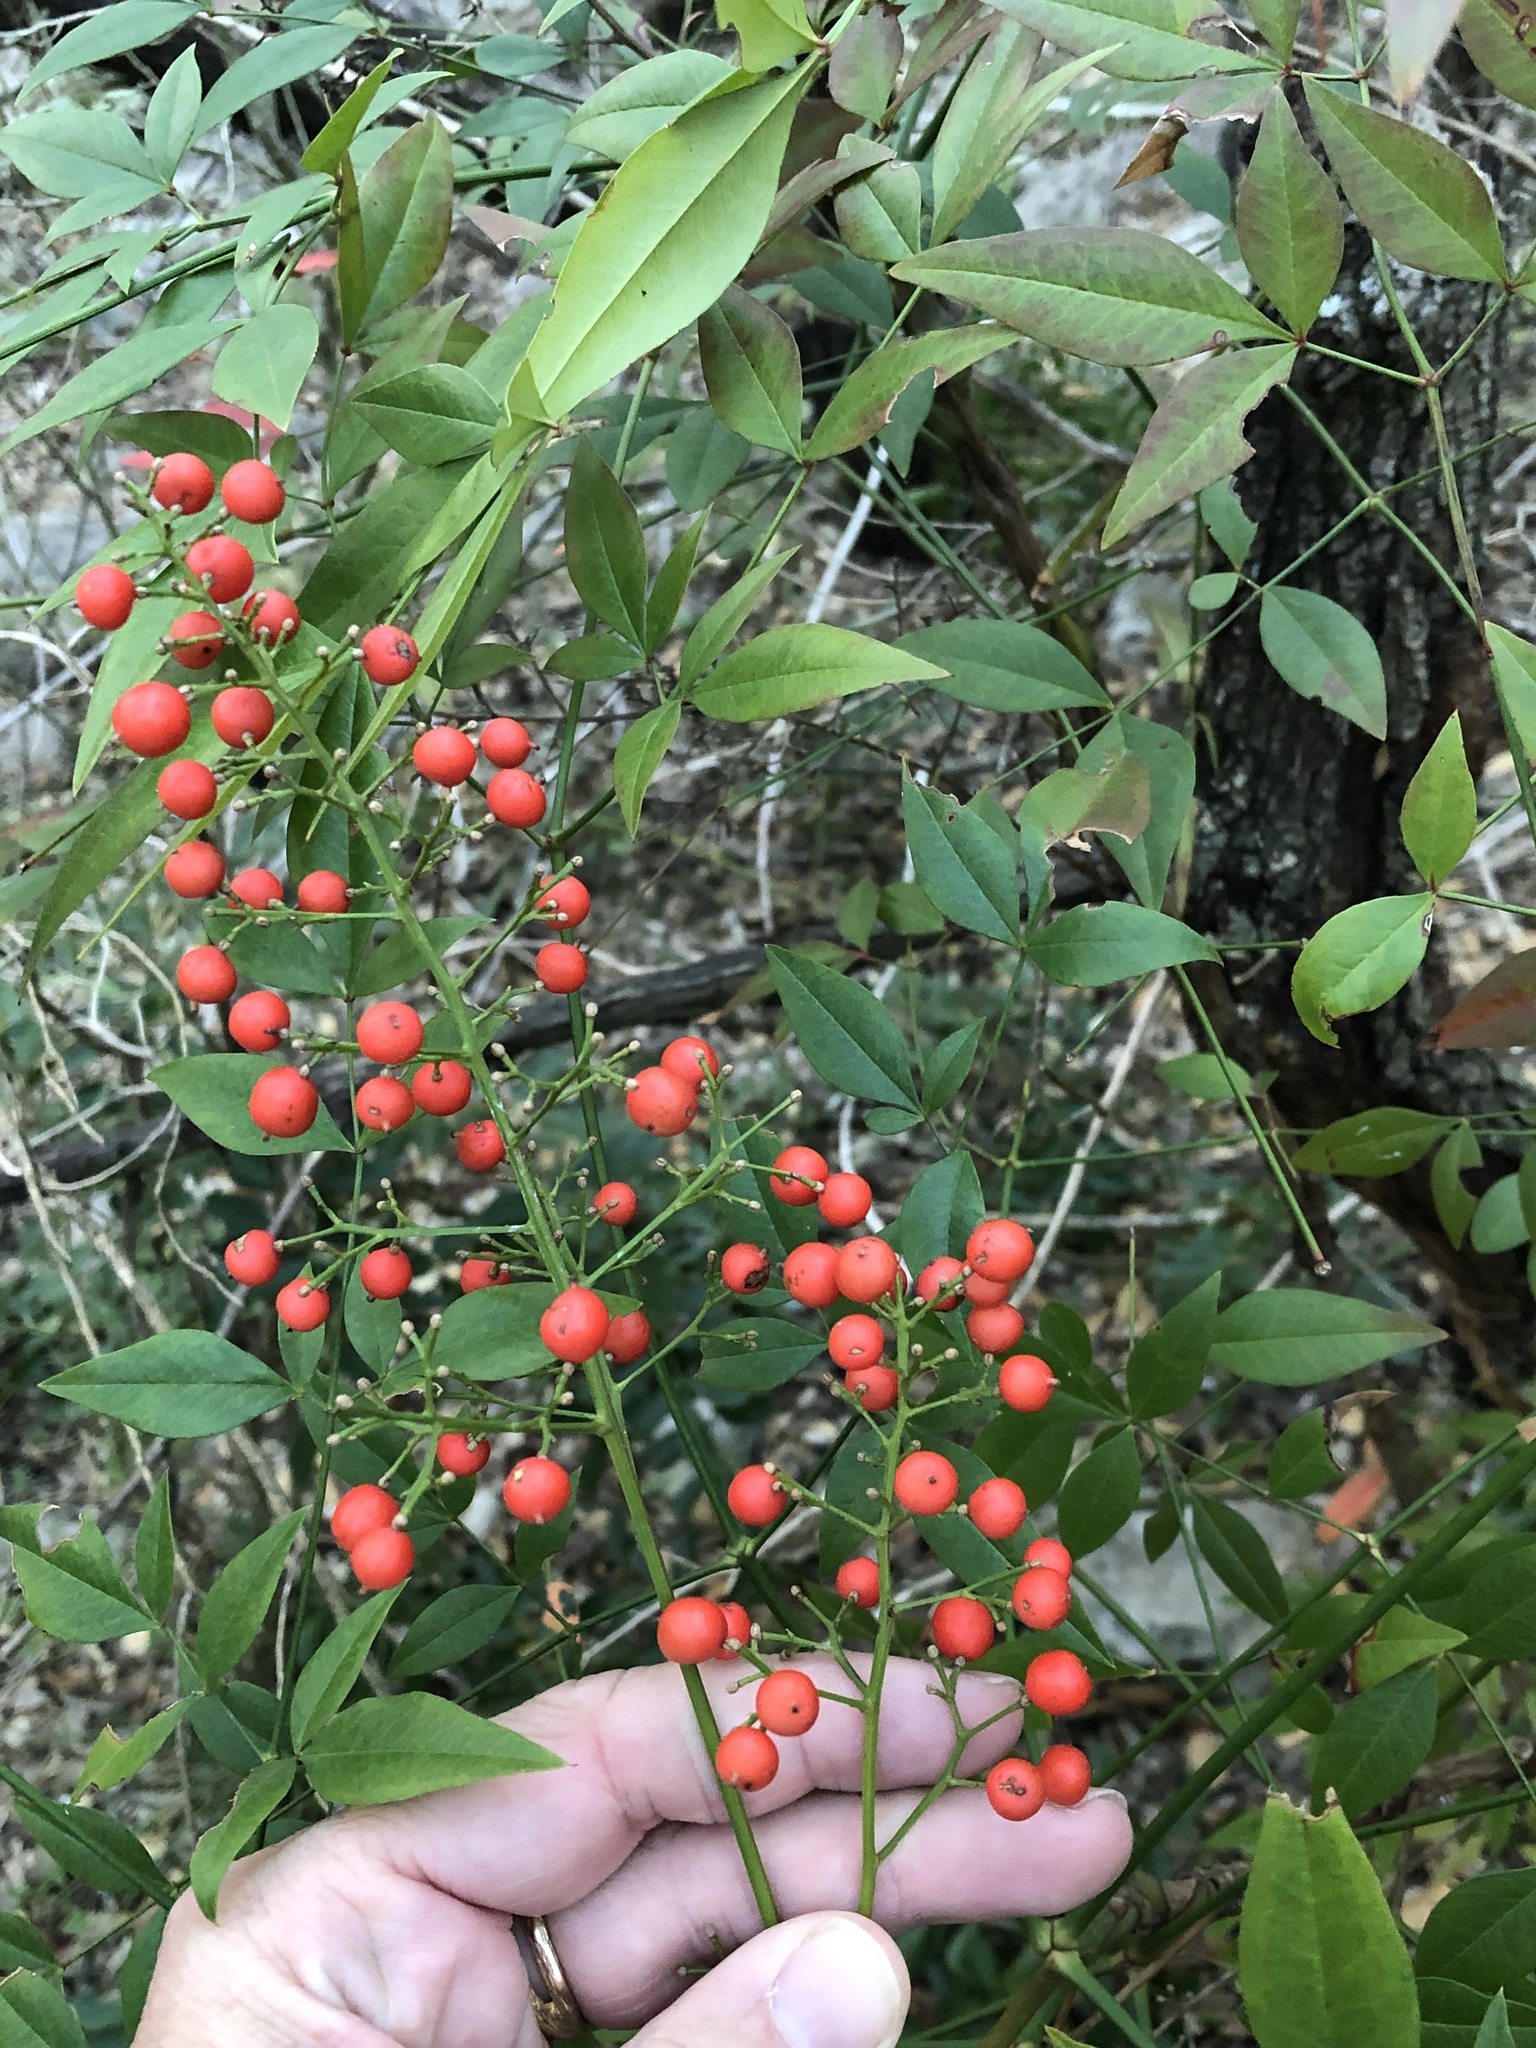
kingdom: Plantae
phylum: Tracheophyta
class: Magnoliopsida
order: Ranunculales
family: Berberidaceae
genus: Nandina
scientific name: Nandina domestica
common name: Sacred bamboo
